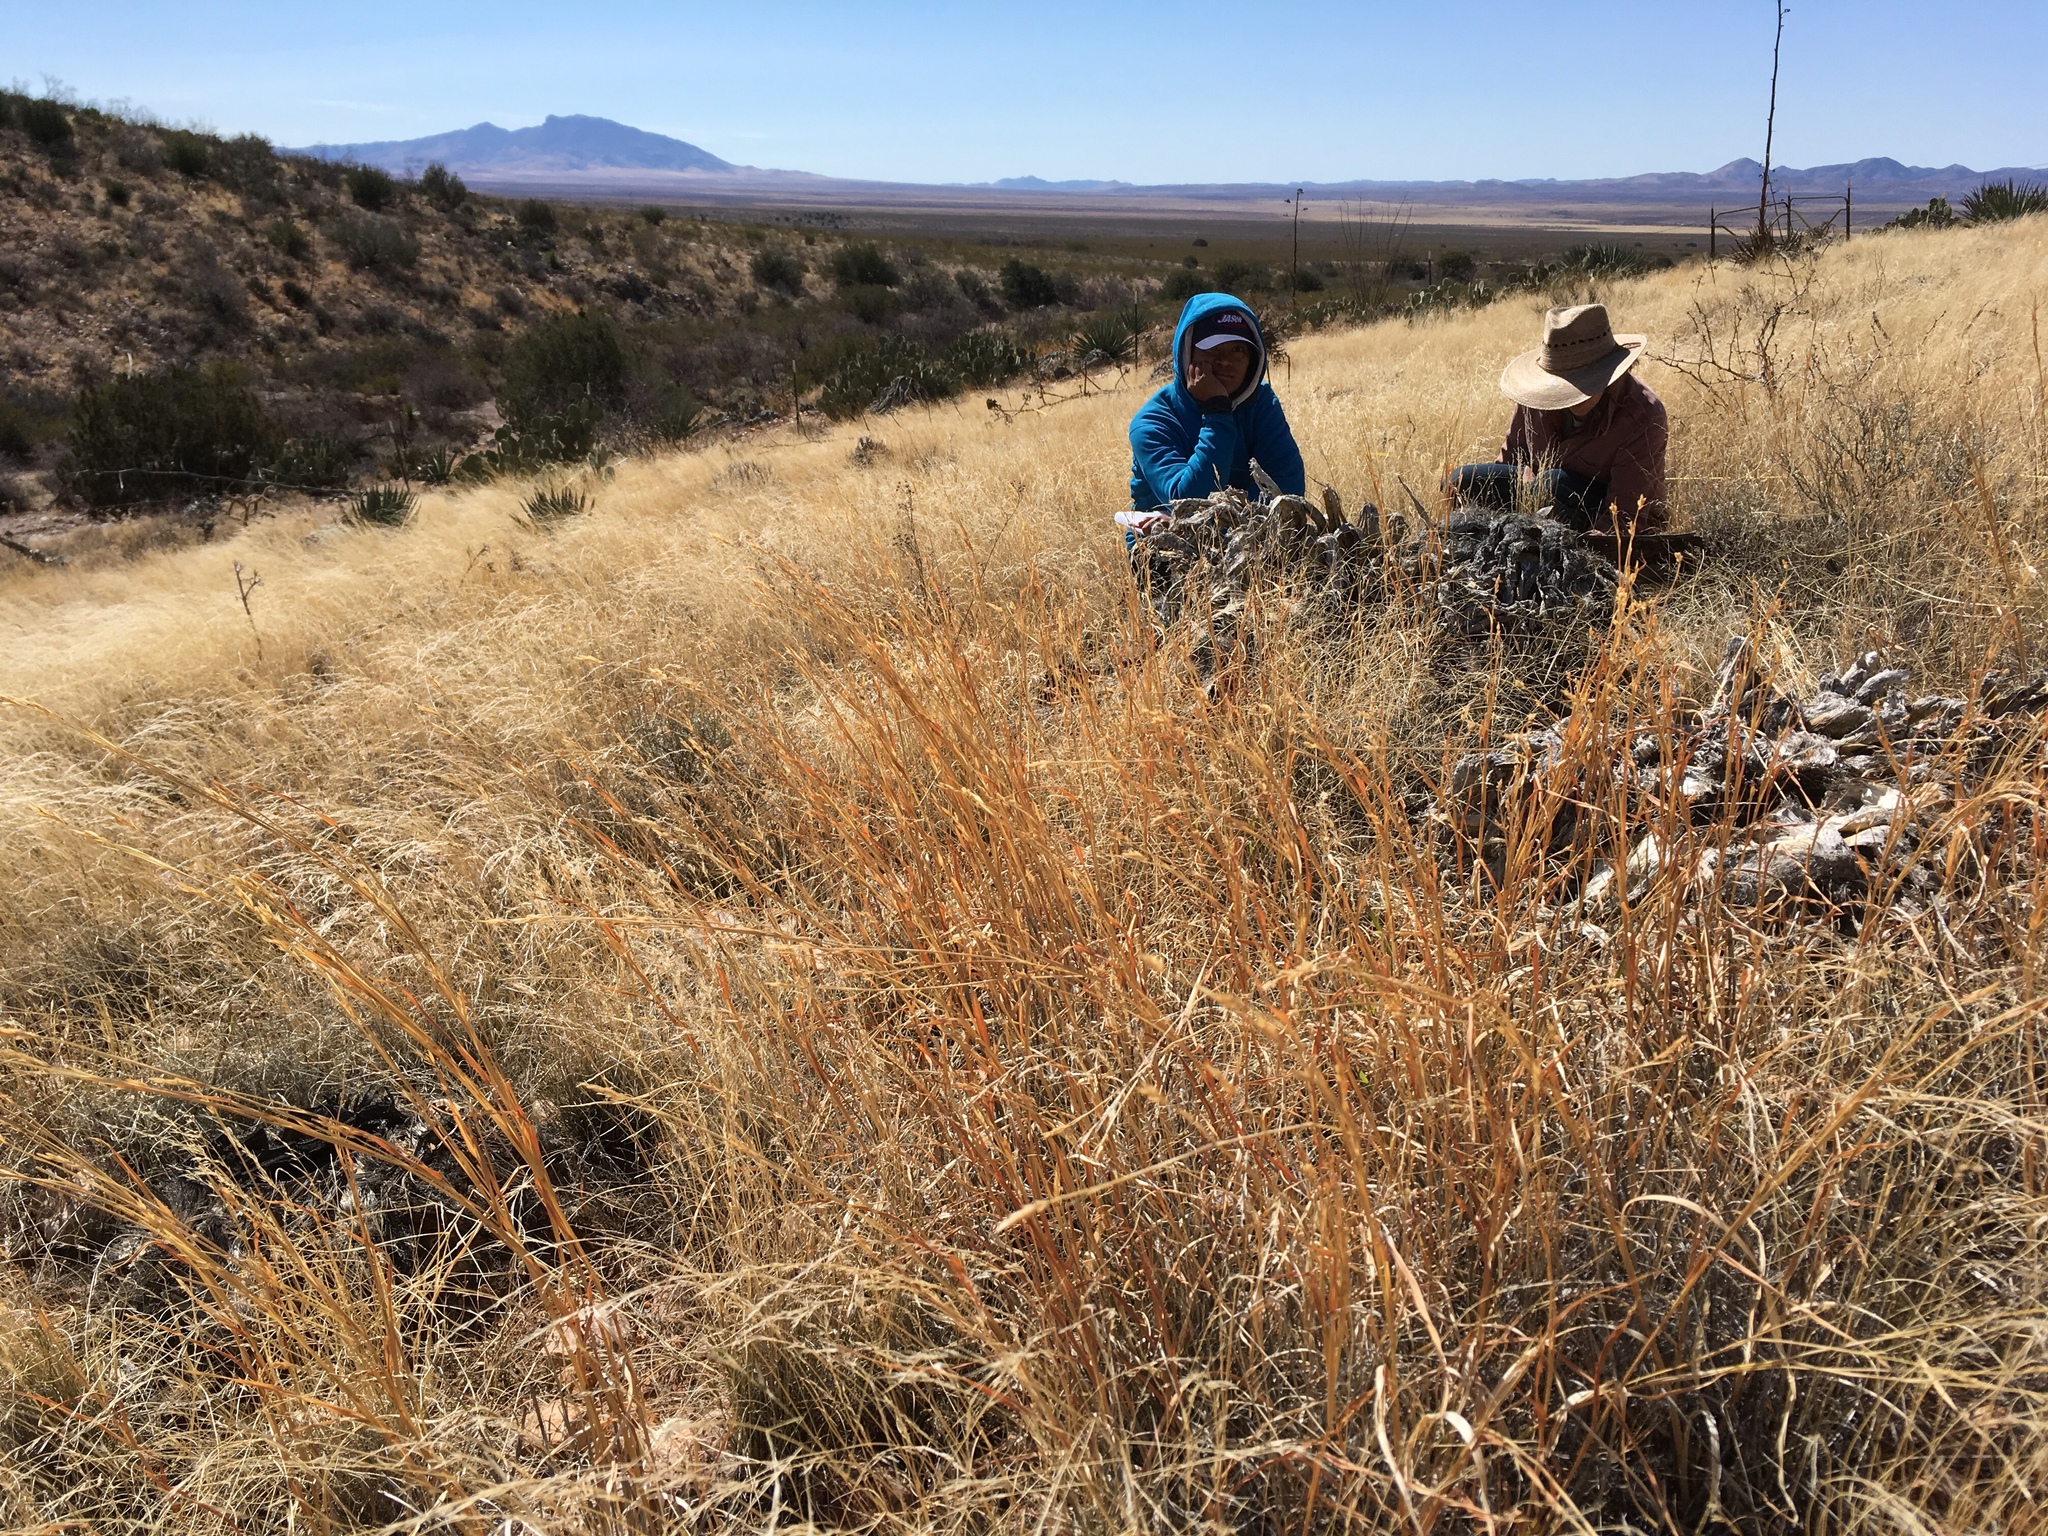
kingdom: Plantae
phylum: Tracheophyta
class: Liliopsida
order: Poales
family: Poaceae
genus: Heteropogon
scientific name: Heteropogon contortus
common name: Tanglehead
